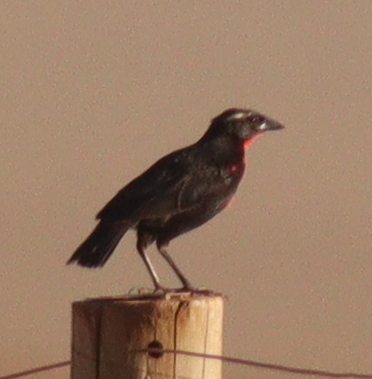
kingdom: Animalia
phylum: Chordata
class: Aves
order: Passeriformes
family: Icteridae
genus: Sturnella
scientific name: Sturnella superciliaris
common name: White-browed blackbird
